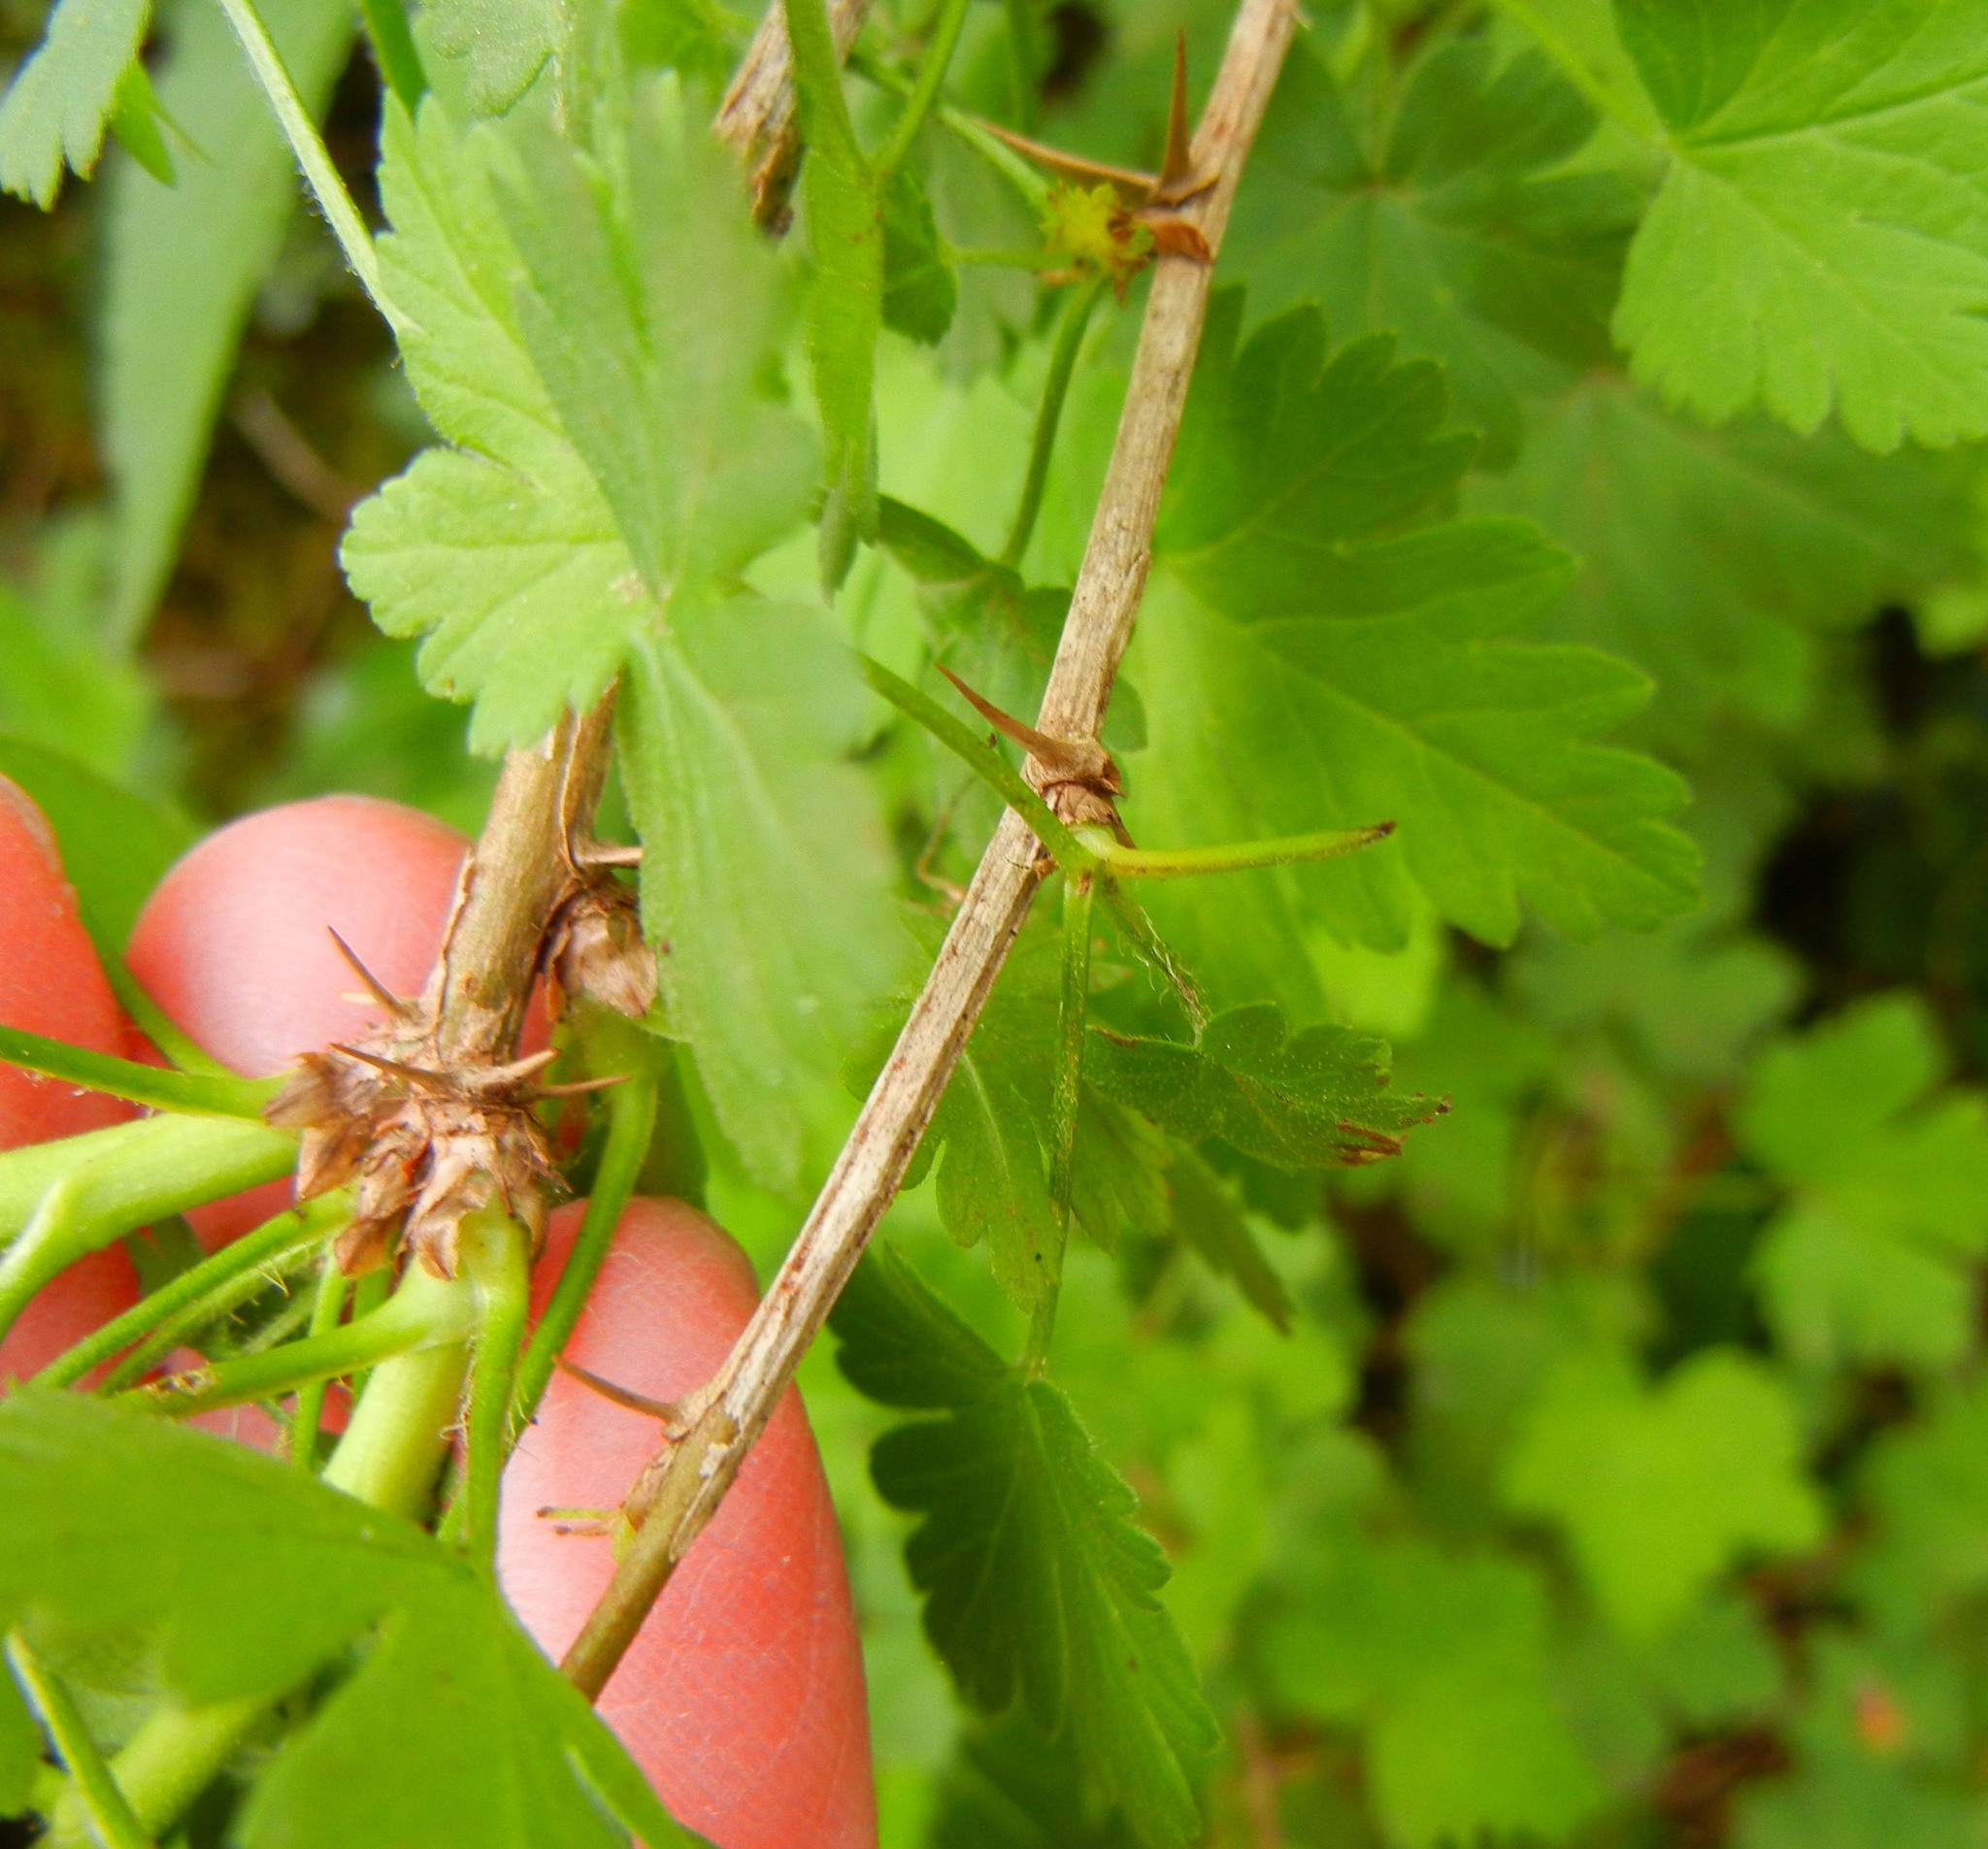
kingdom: Plantae
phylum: Tracheophyta
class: Magnoliopsida
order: Saxifragales
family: Grossulariaceae
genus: Ribes
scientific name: Ribes uva-crispa
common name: Gooseberry
